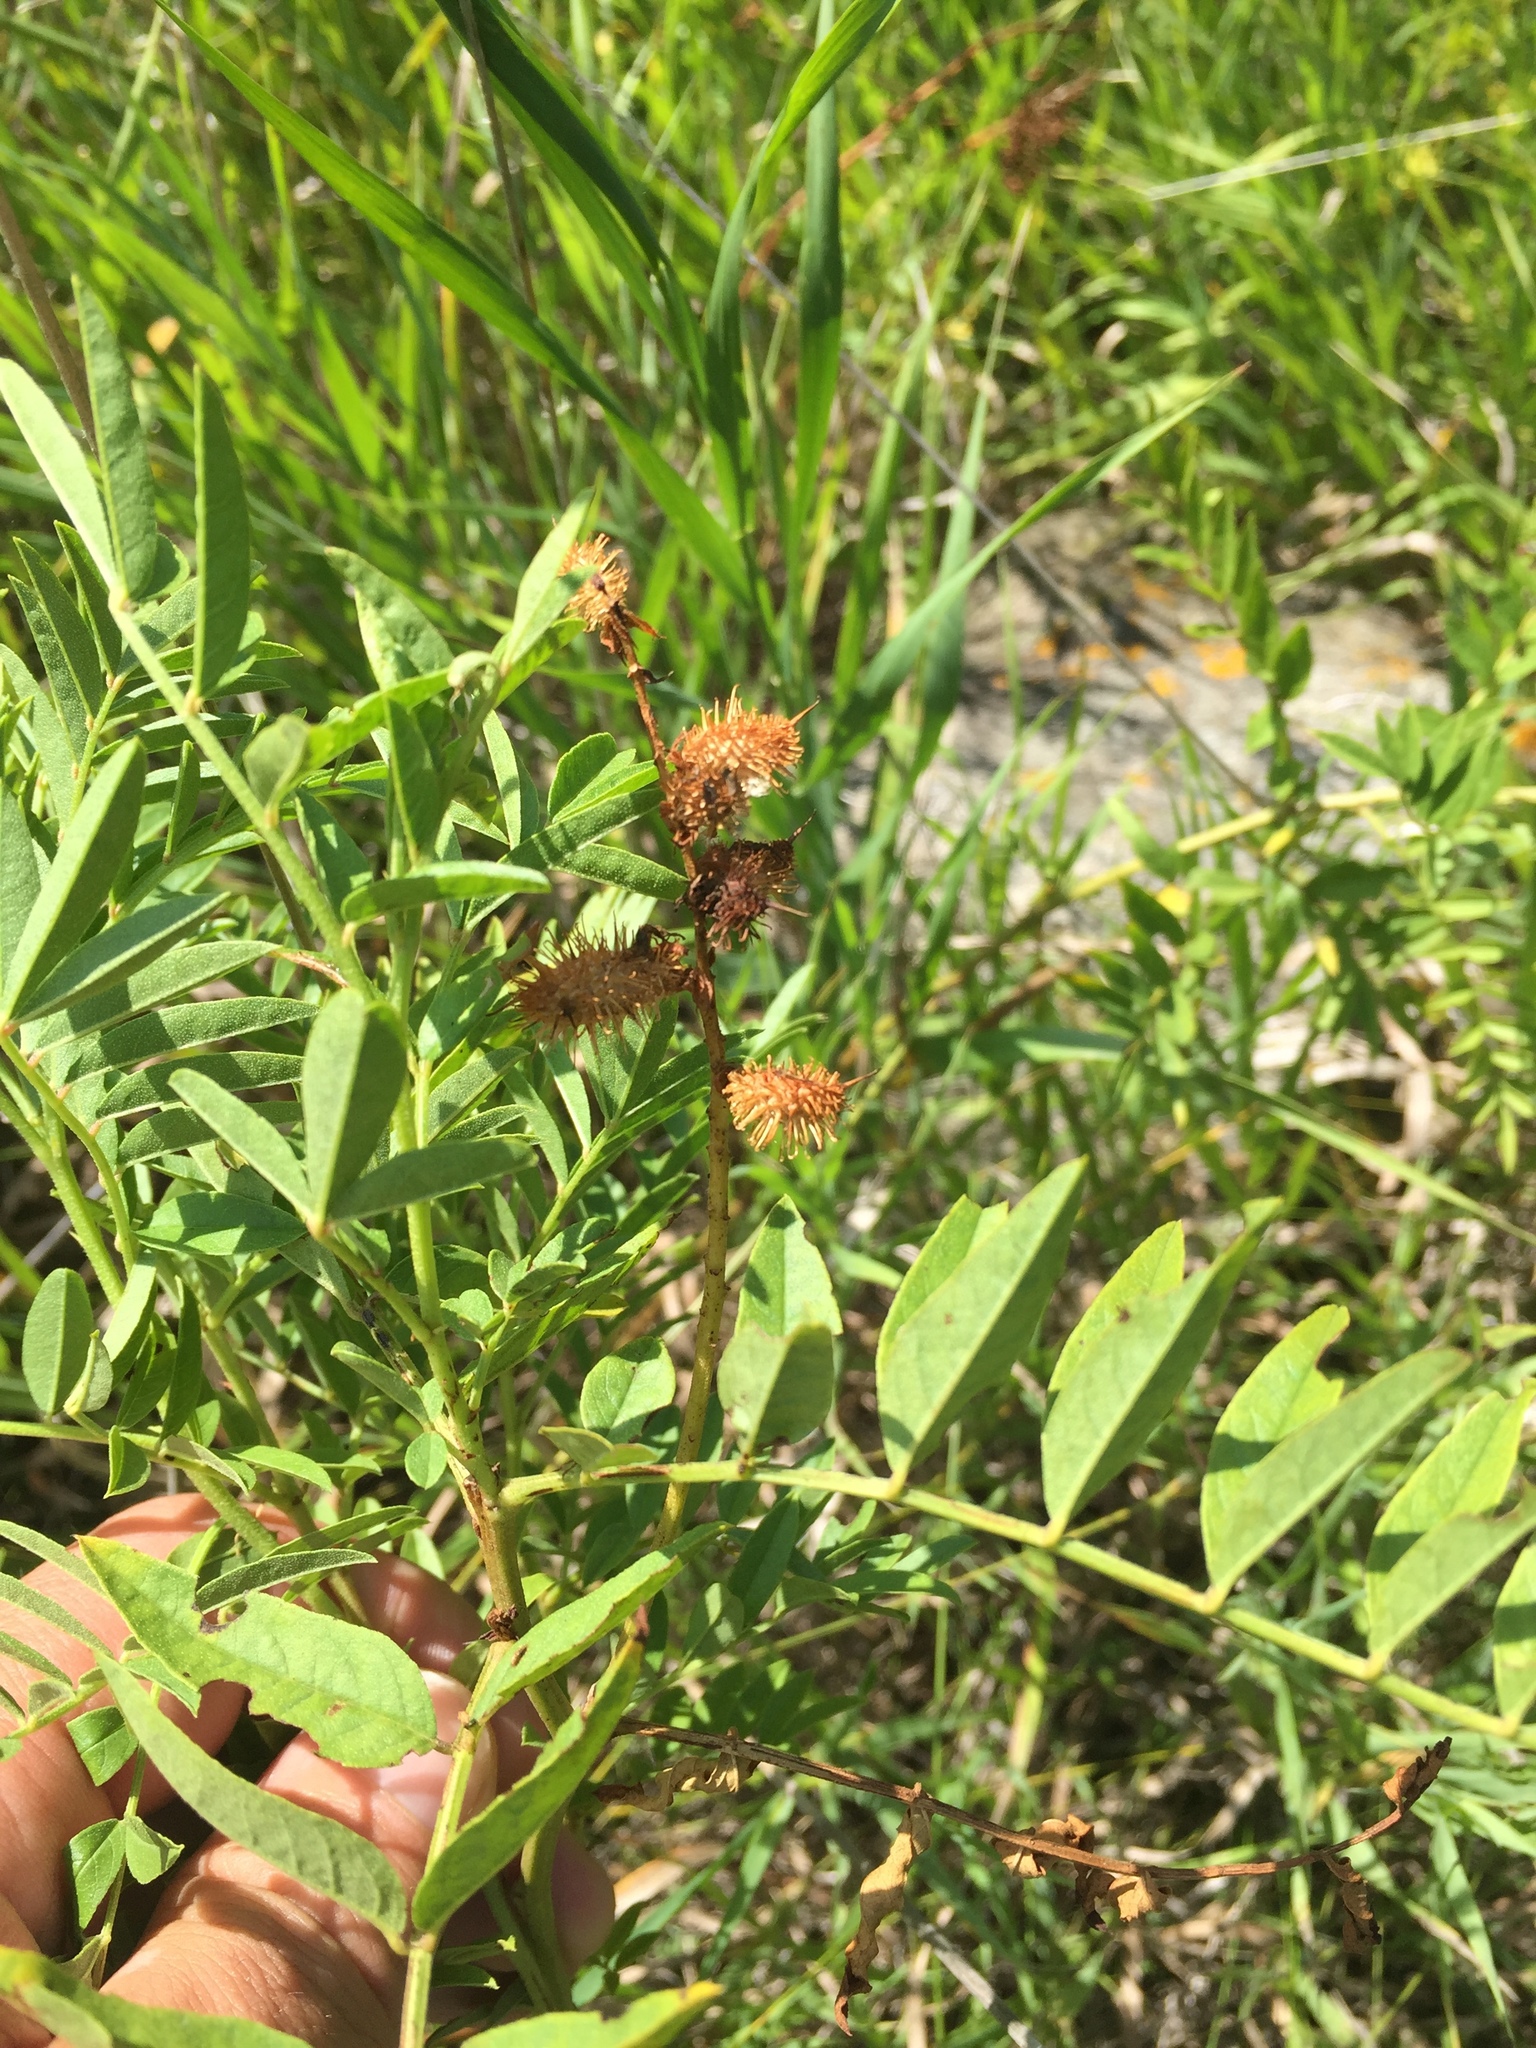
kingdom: Plantae
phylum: Tracheophyta
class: Magnoliopsida
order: Fabales
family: Fabaceae
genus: Glycyrrhiza
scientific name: Glycyrrhiza lepidota
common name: American liquorice
